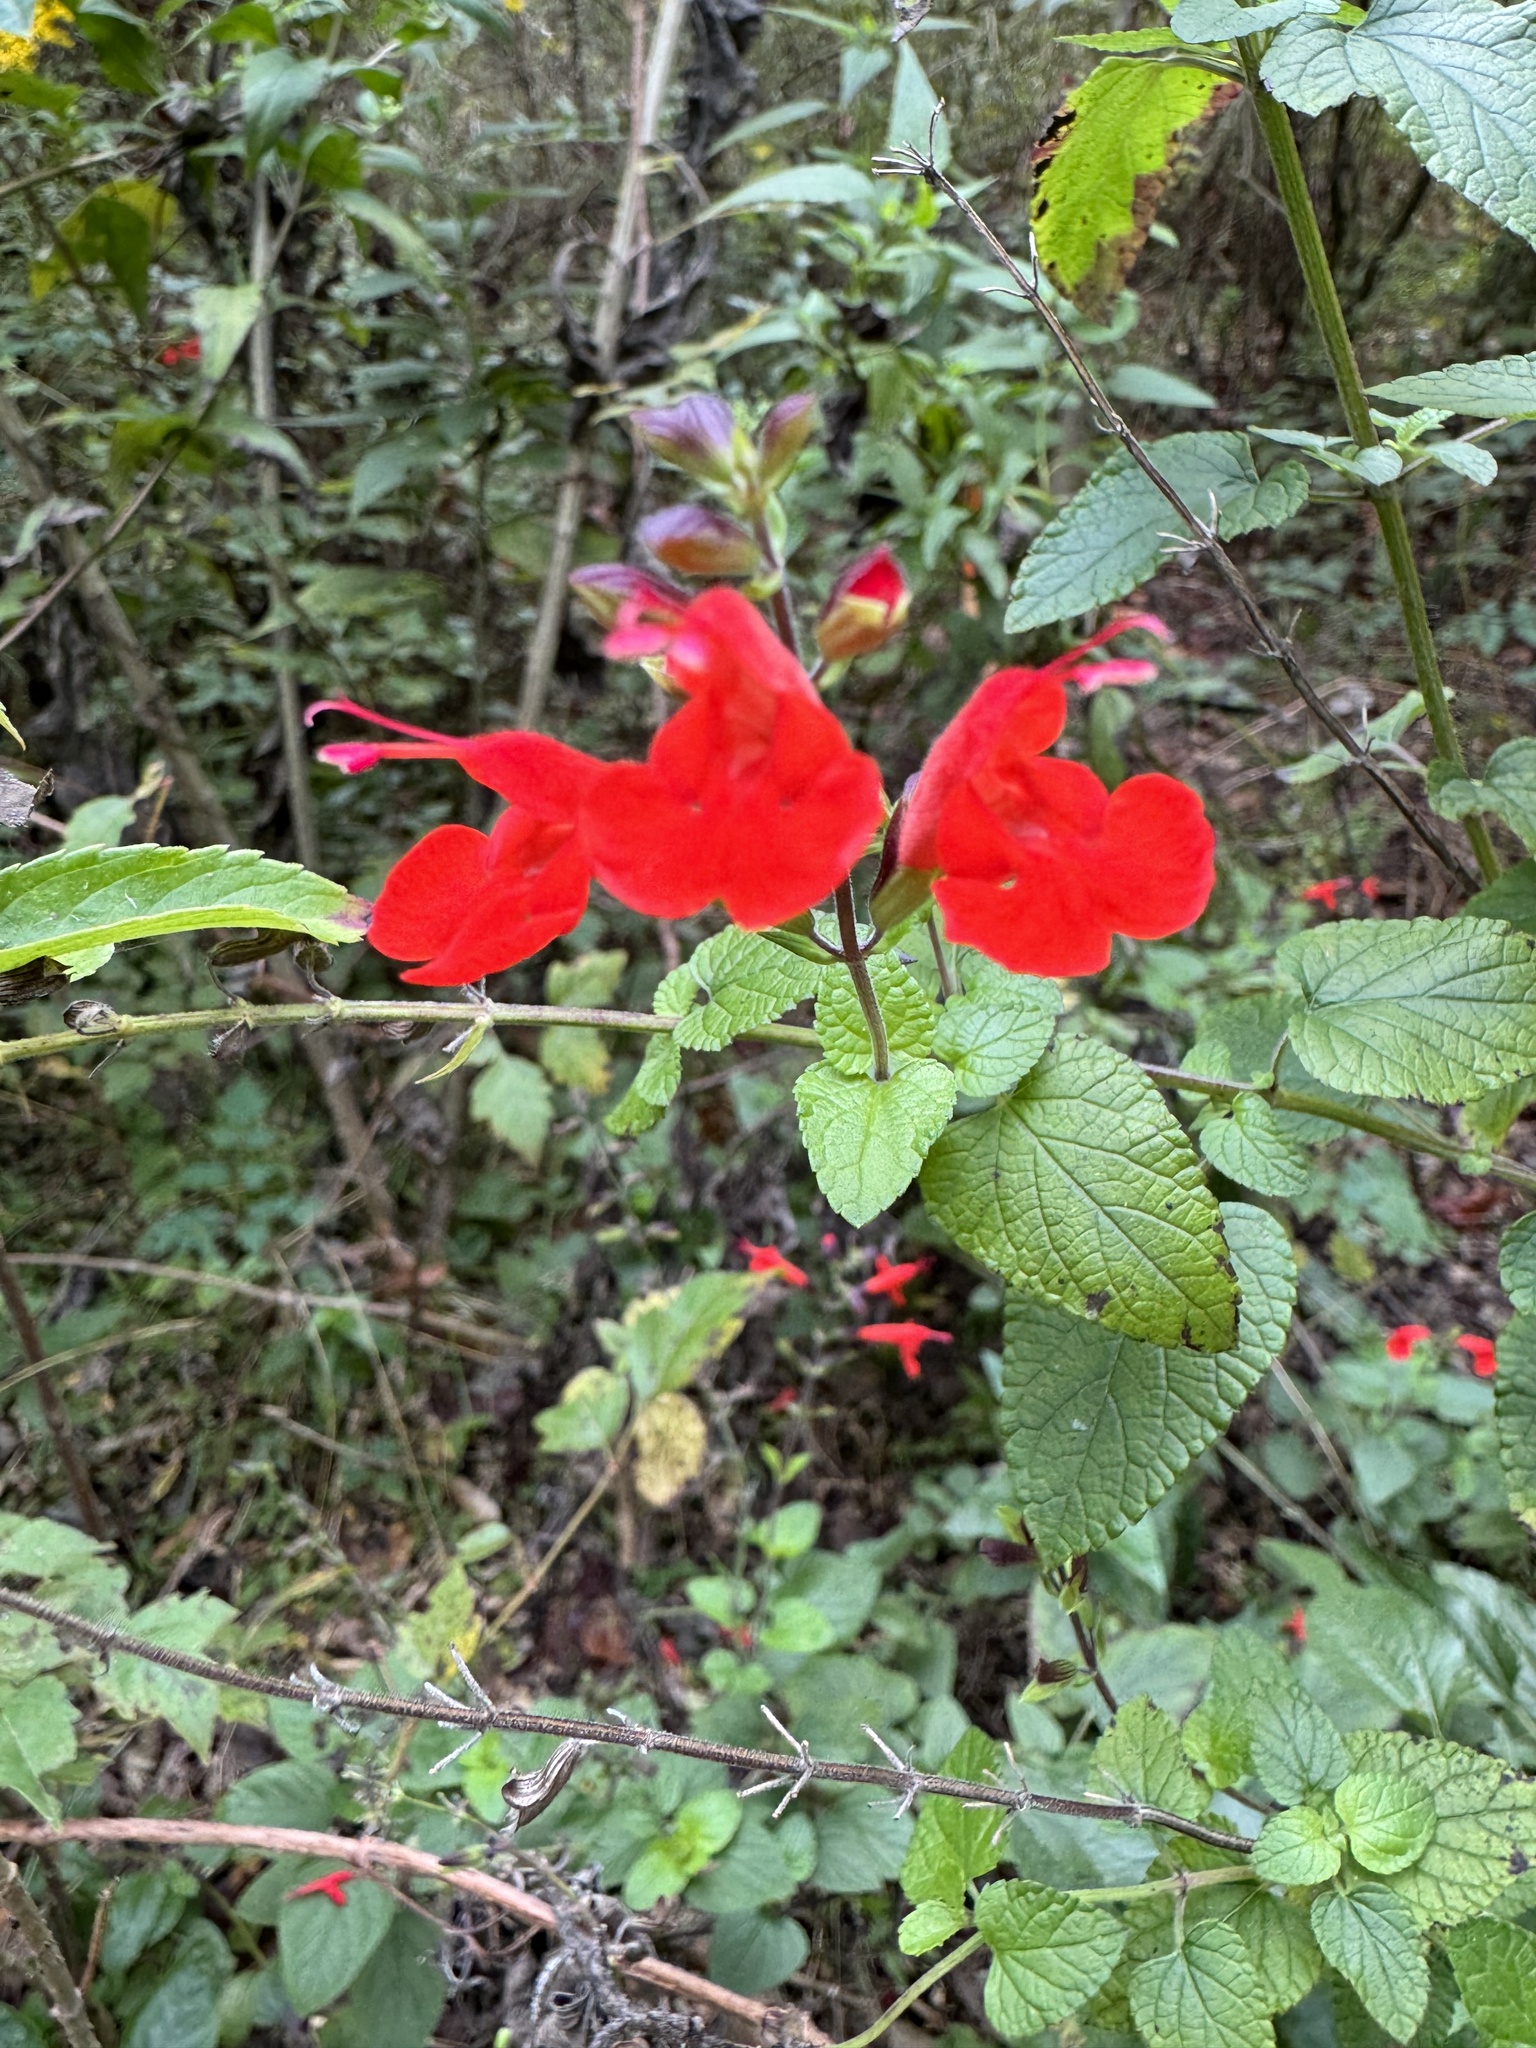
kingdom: Plantae
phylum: Tracheophyta
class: Magnoliopsida
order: Lamiales
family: Lamiaceae
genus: Salvia
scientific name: Salvia coccinea
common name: Blood sage
